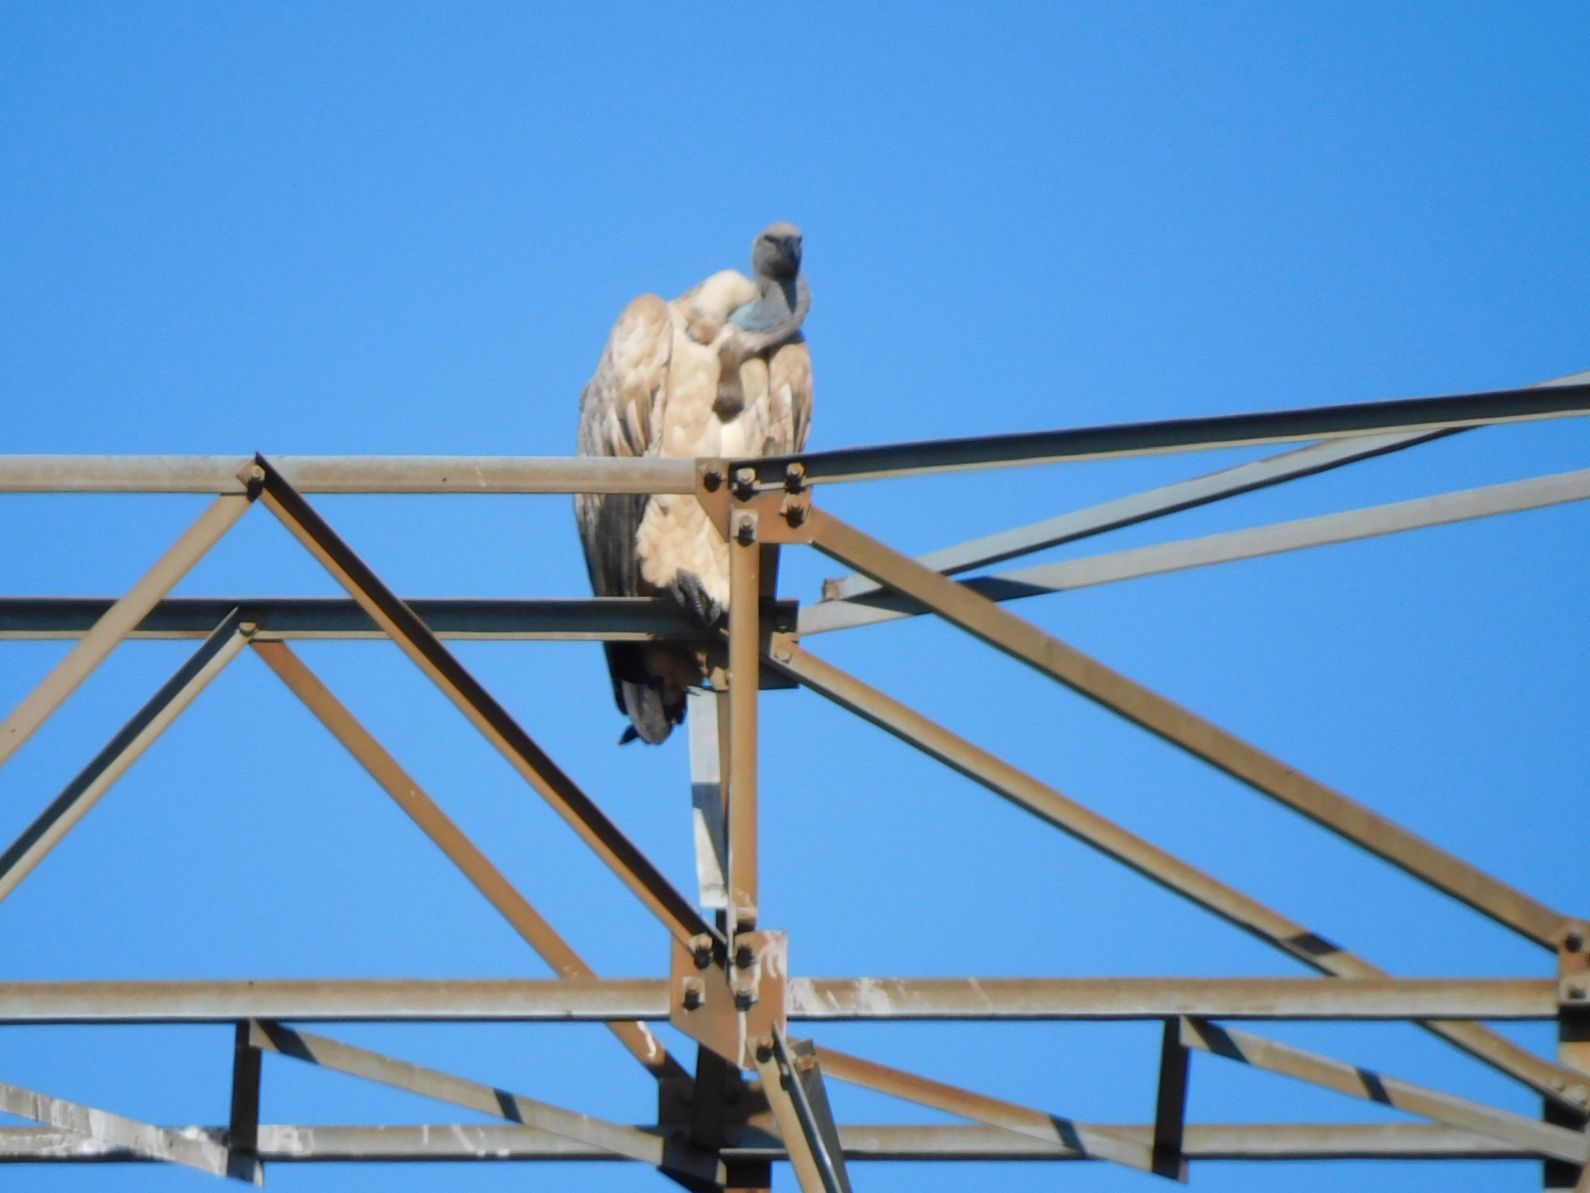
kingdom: Animalia
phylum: Chordata
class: Aves
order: Accipitriformes
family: Accipitridae
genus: Gyps
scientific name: Gyps coprotheres
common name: Cape vulture
